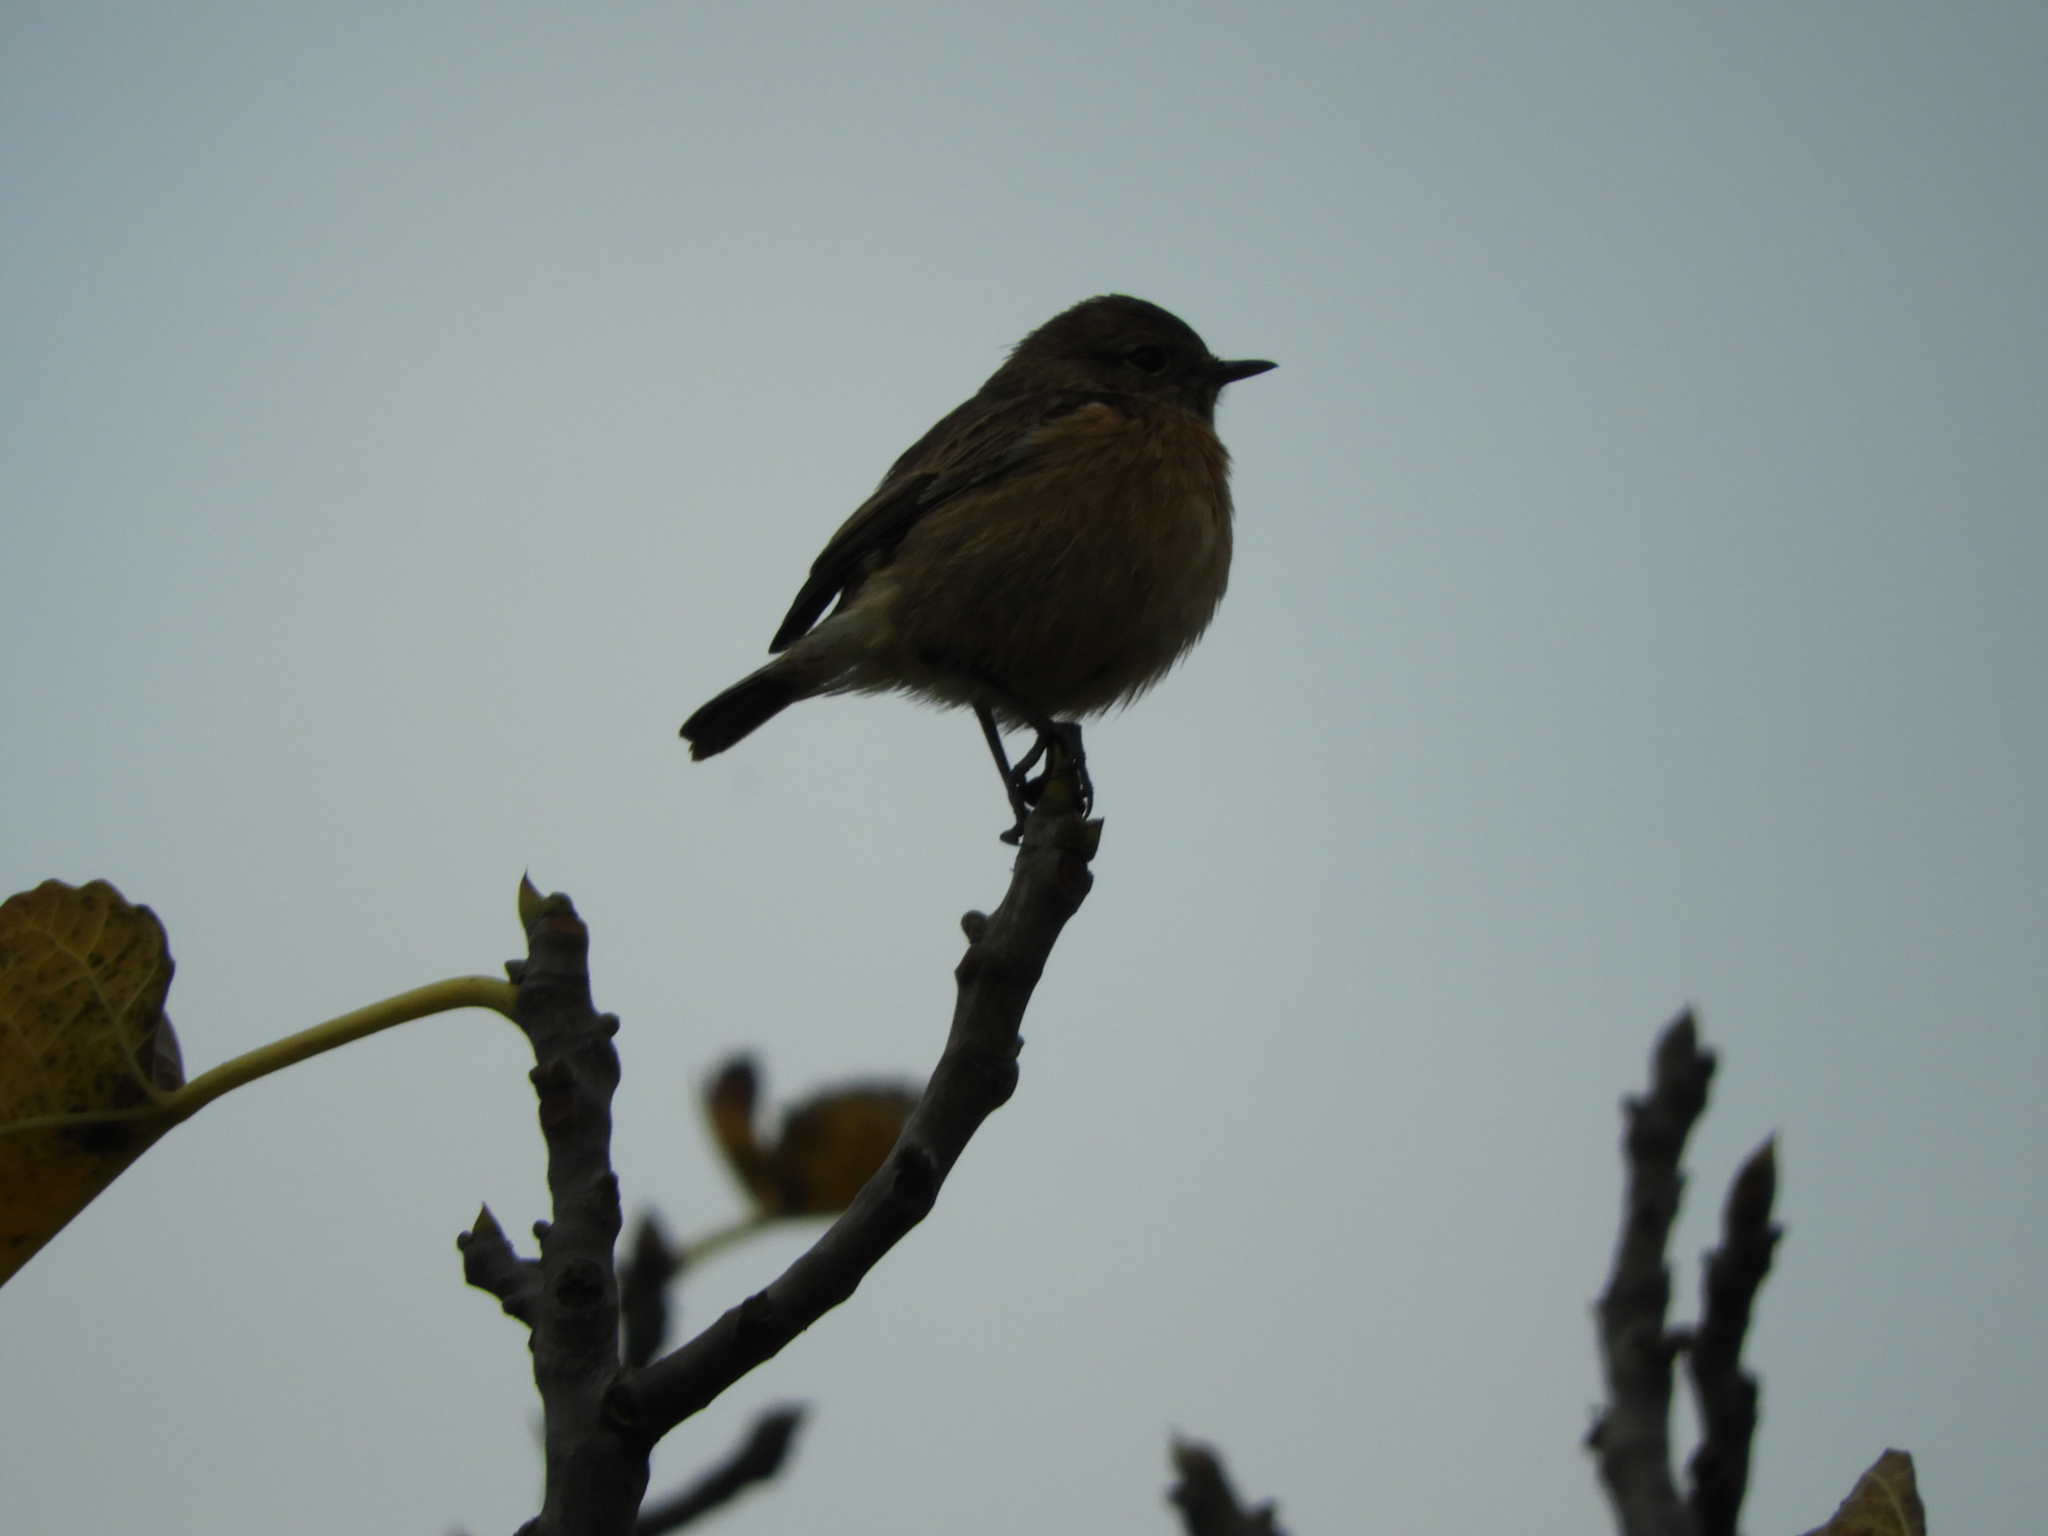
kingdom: Animalia
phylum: Chordata
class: Aves
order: Passeriformes
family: Muscicapidae
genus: Saxicola
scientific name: Saxicola rubicola
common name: European stonechat
